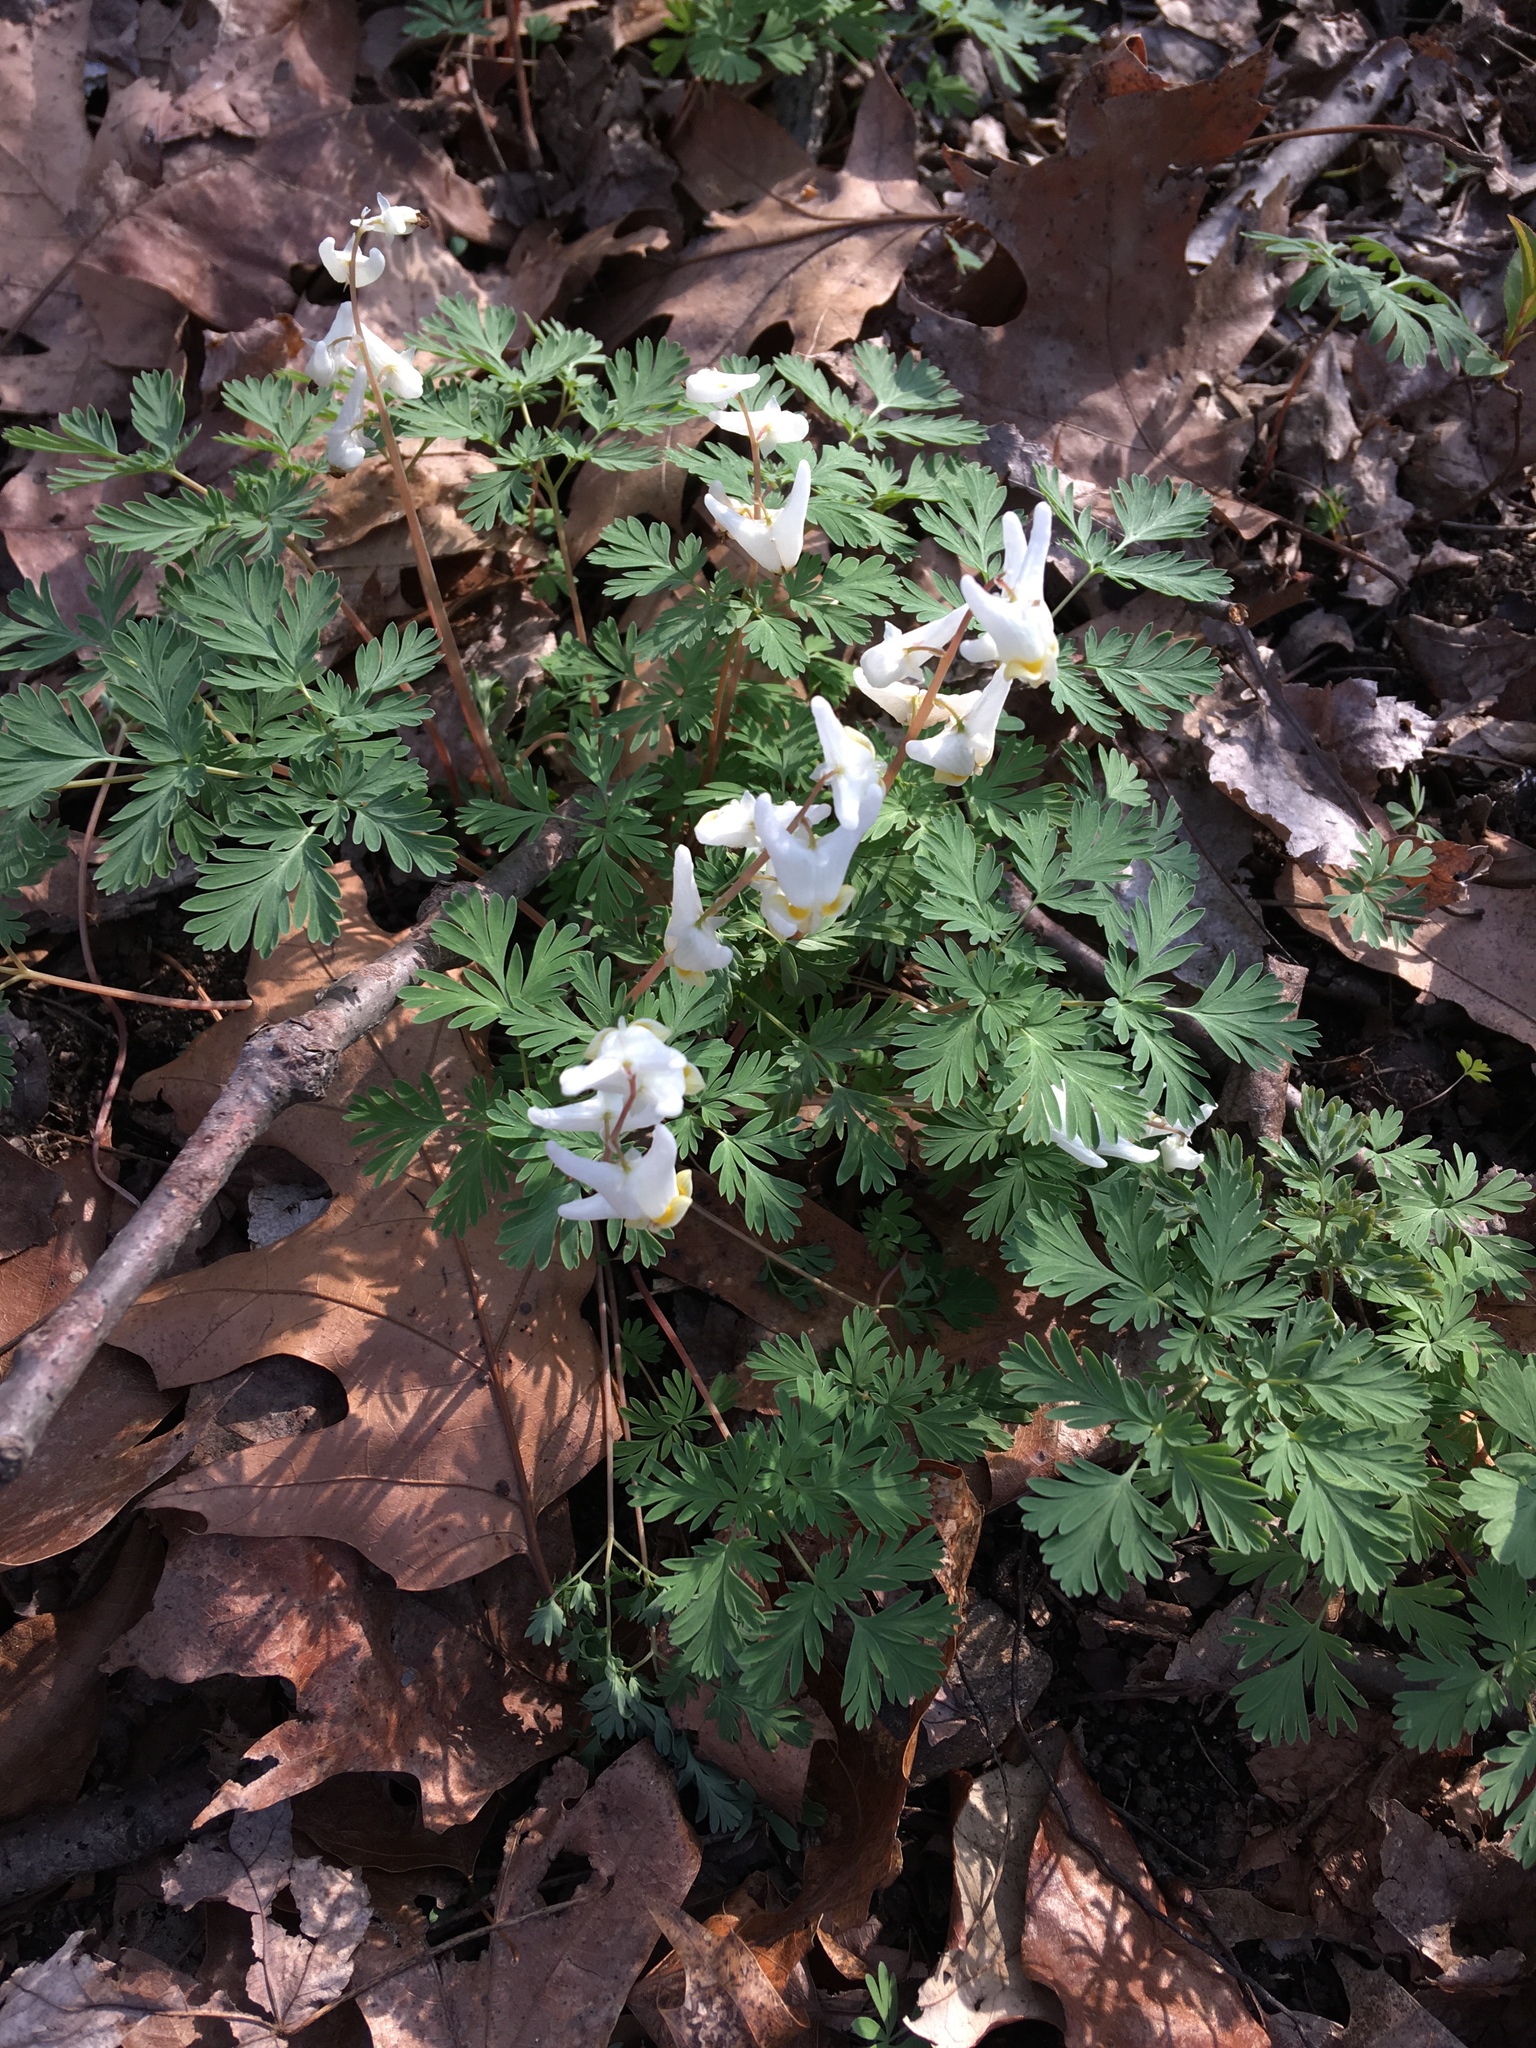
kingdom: Plantae
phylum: Tracheophyta
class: Magnoliopsida
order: Ranunculales
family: Papaveraceae
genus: Dicentra
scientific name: Dicentra cucullaria
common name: Dutchman's breeches
